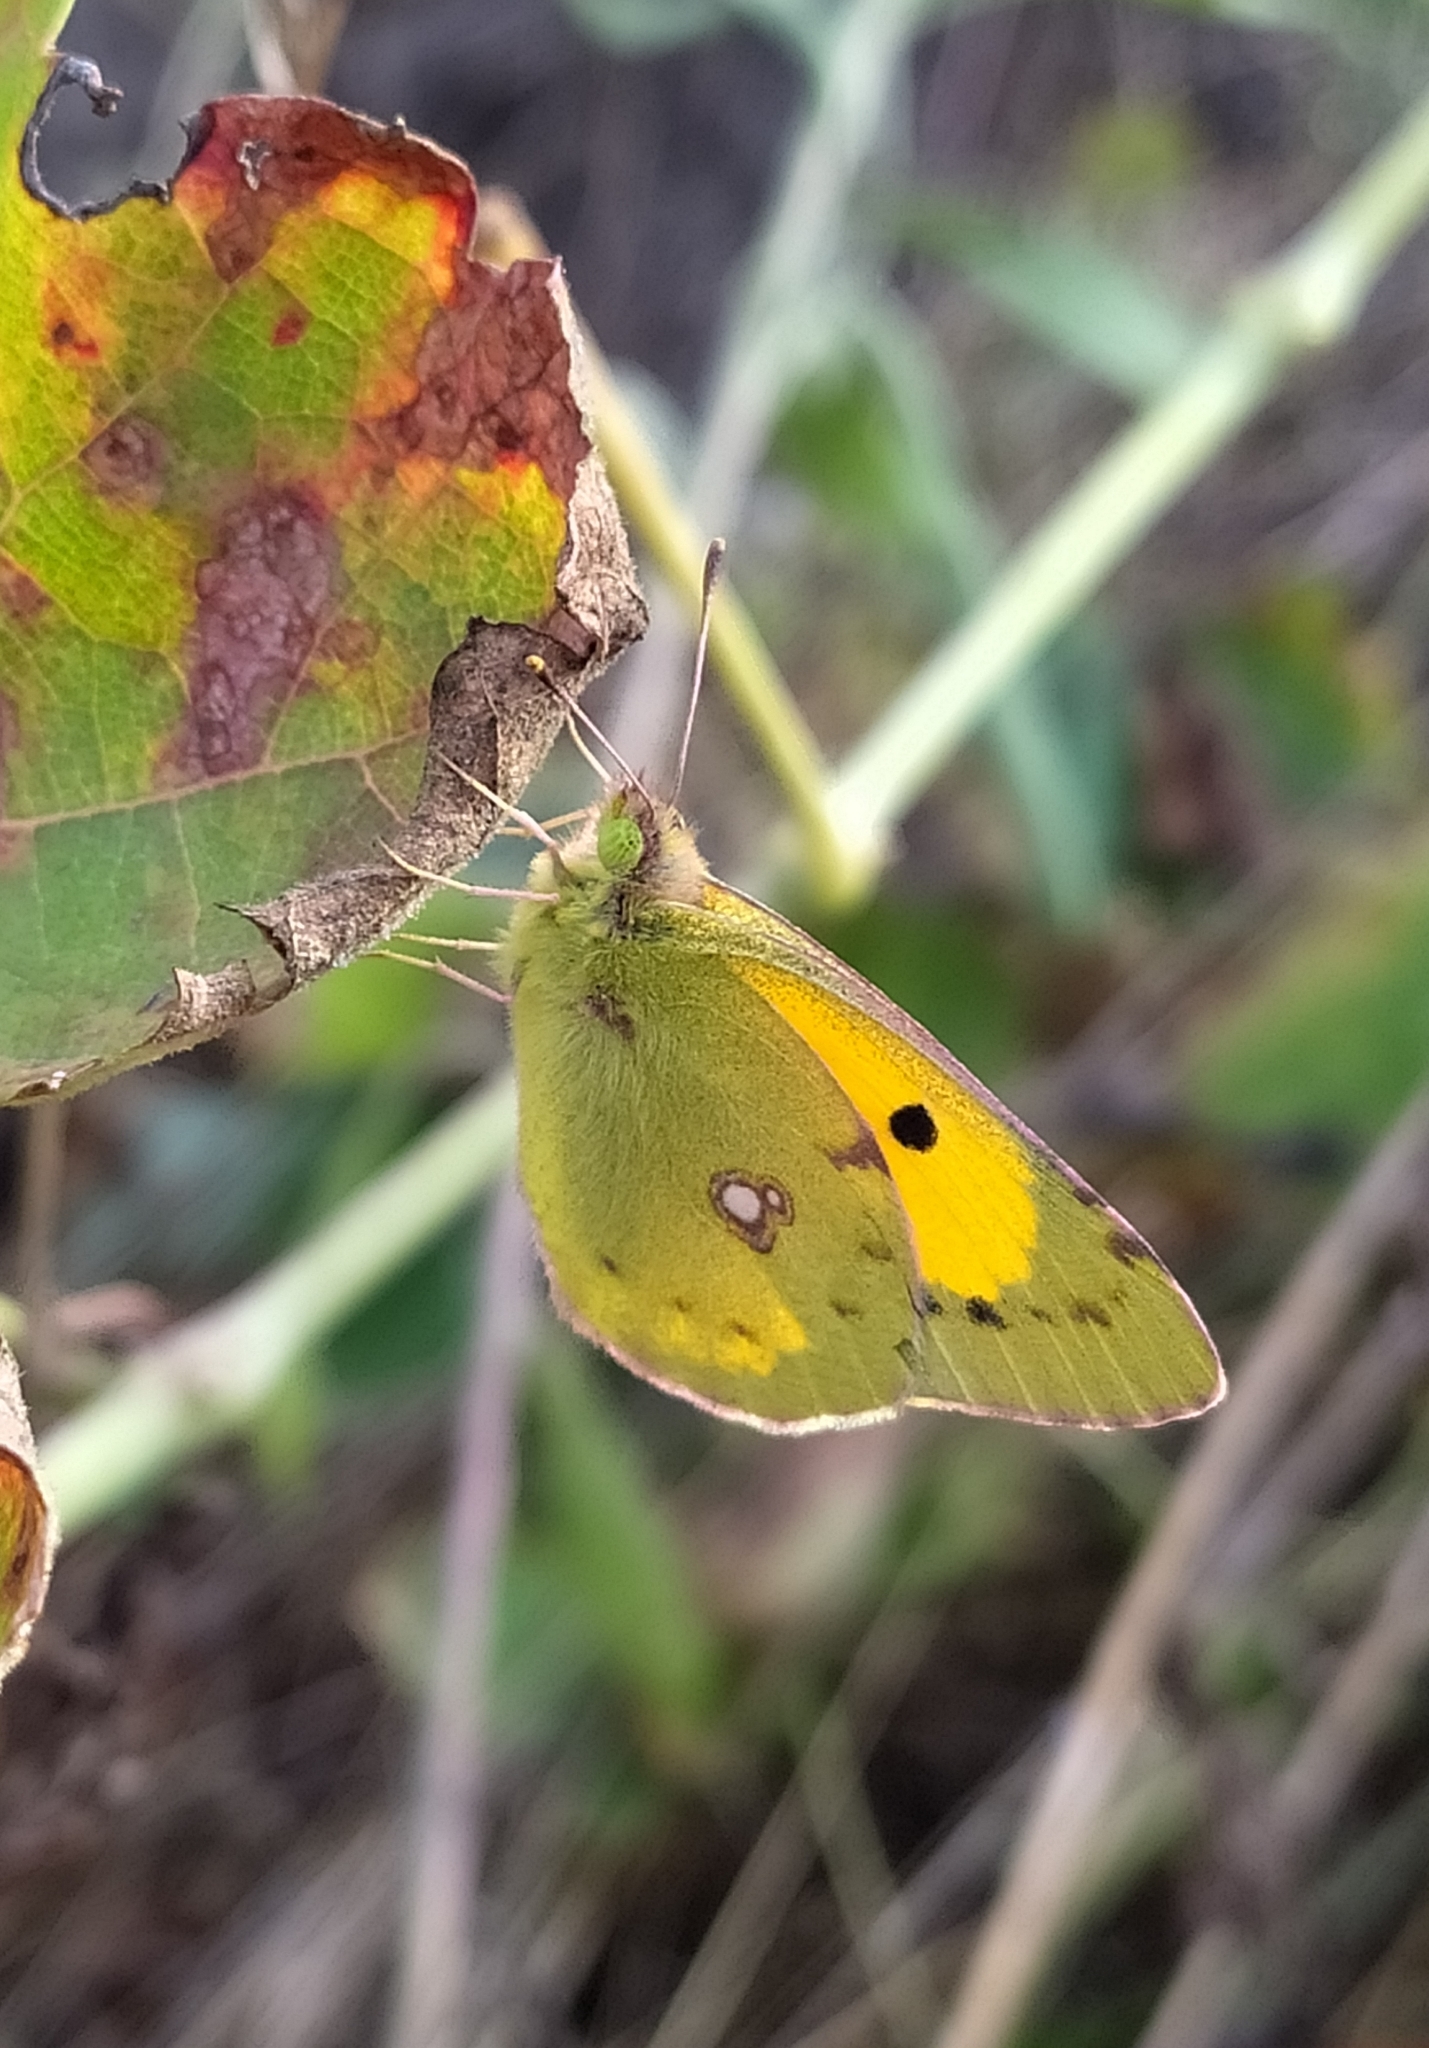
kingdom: Animalia
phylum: Arthropoda
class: Insecta
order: Lepidoptera
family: Pieridae
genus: Colias
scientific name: Colias croceus
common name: Clouded yellow
